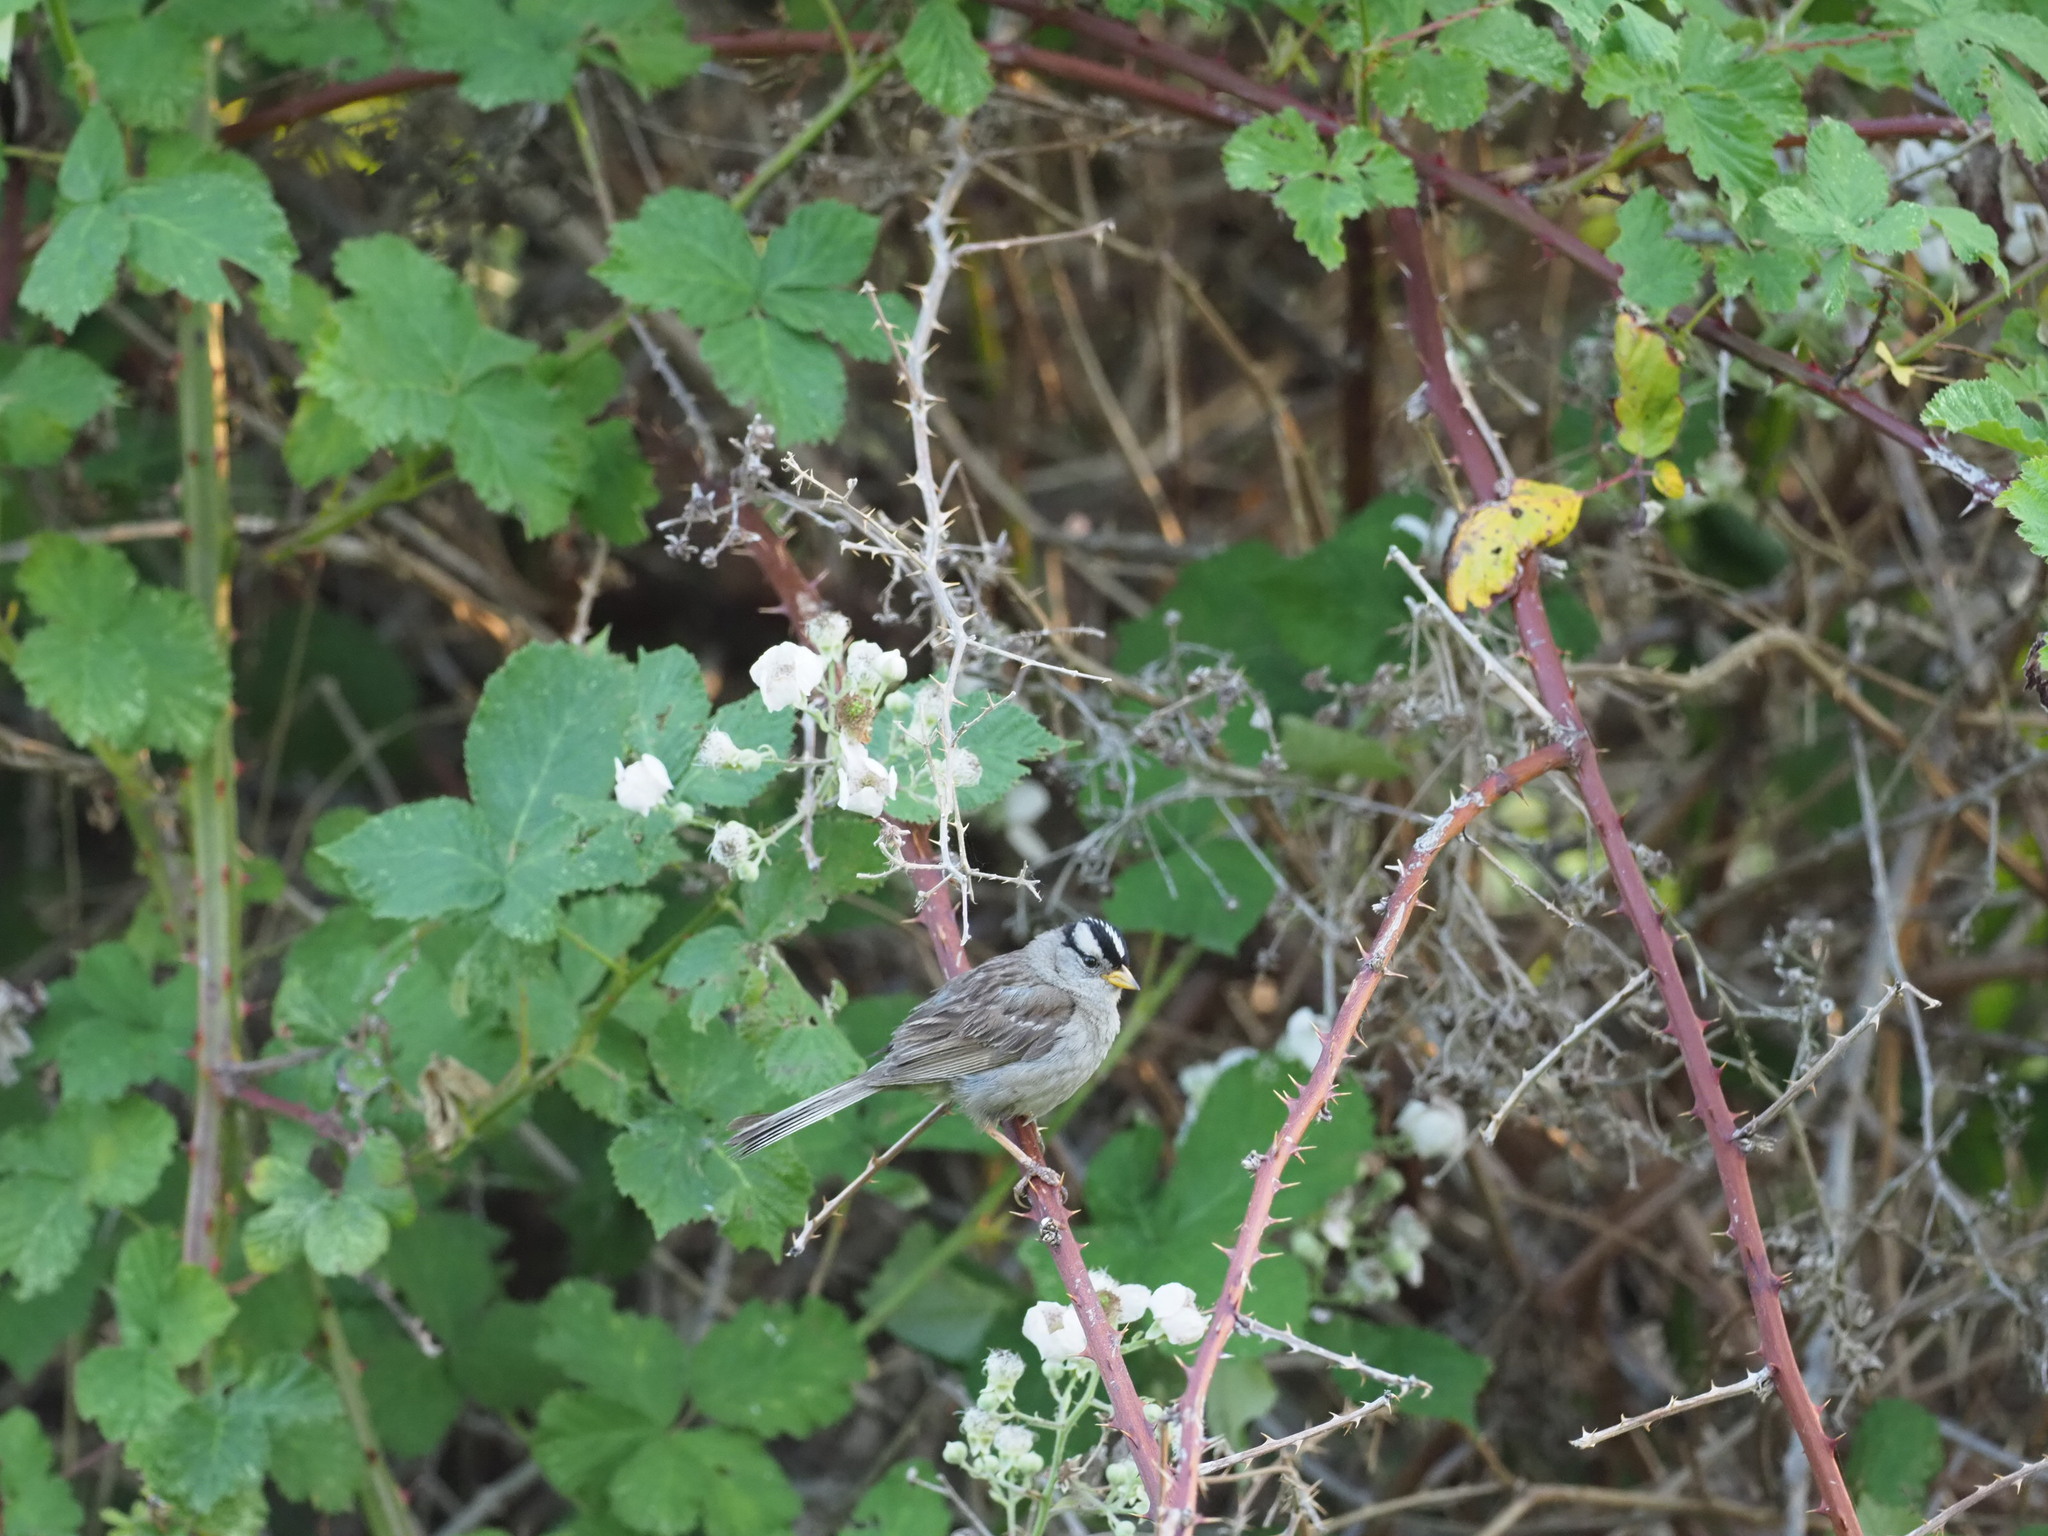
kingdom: Animalia
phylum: Chordata
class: Aves
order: Passeriformes
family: Passerellidae
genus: Zonotrichia
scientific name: Zonotrichia leucophrys
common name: White-crowned sparrow
